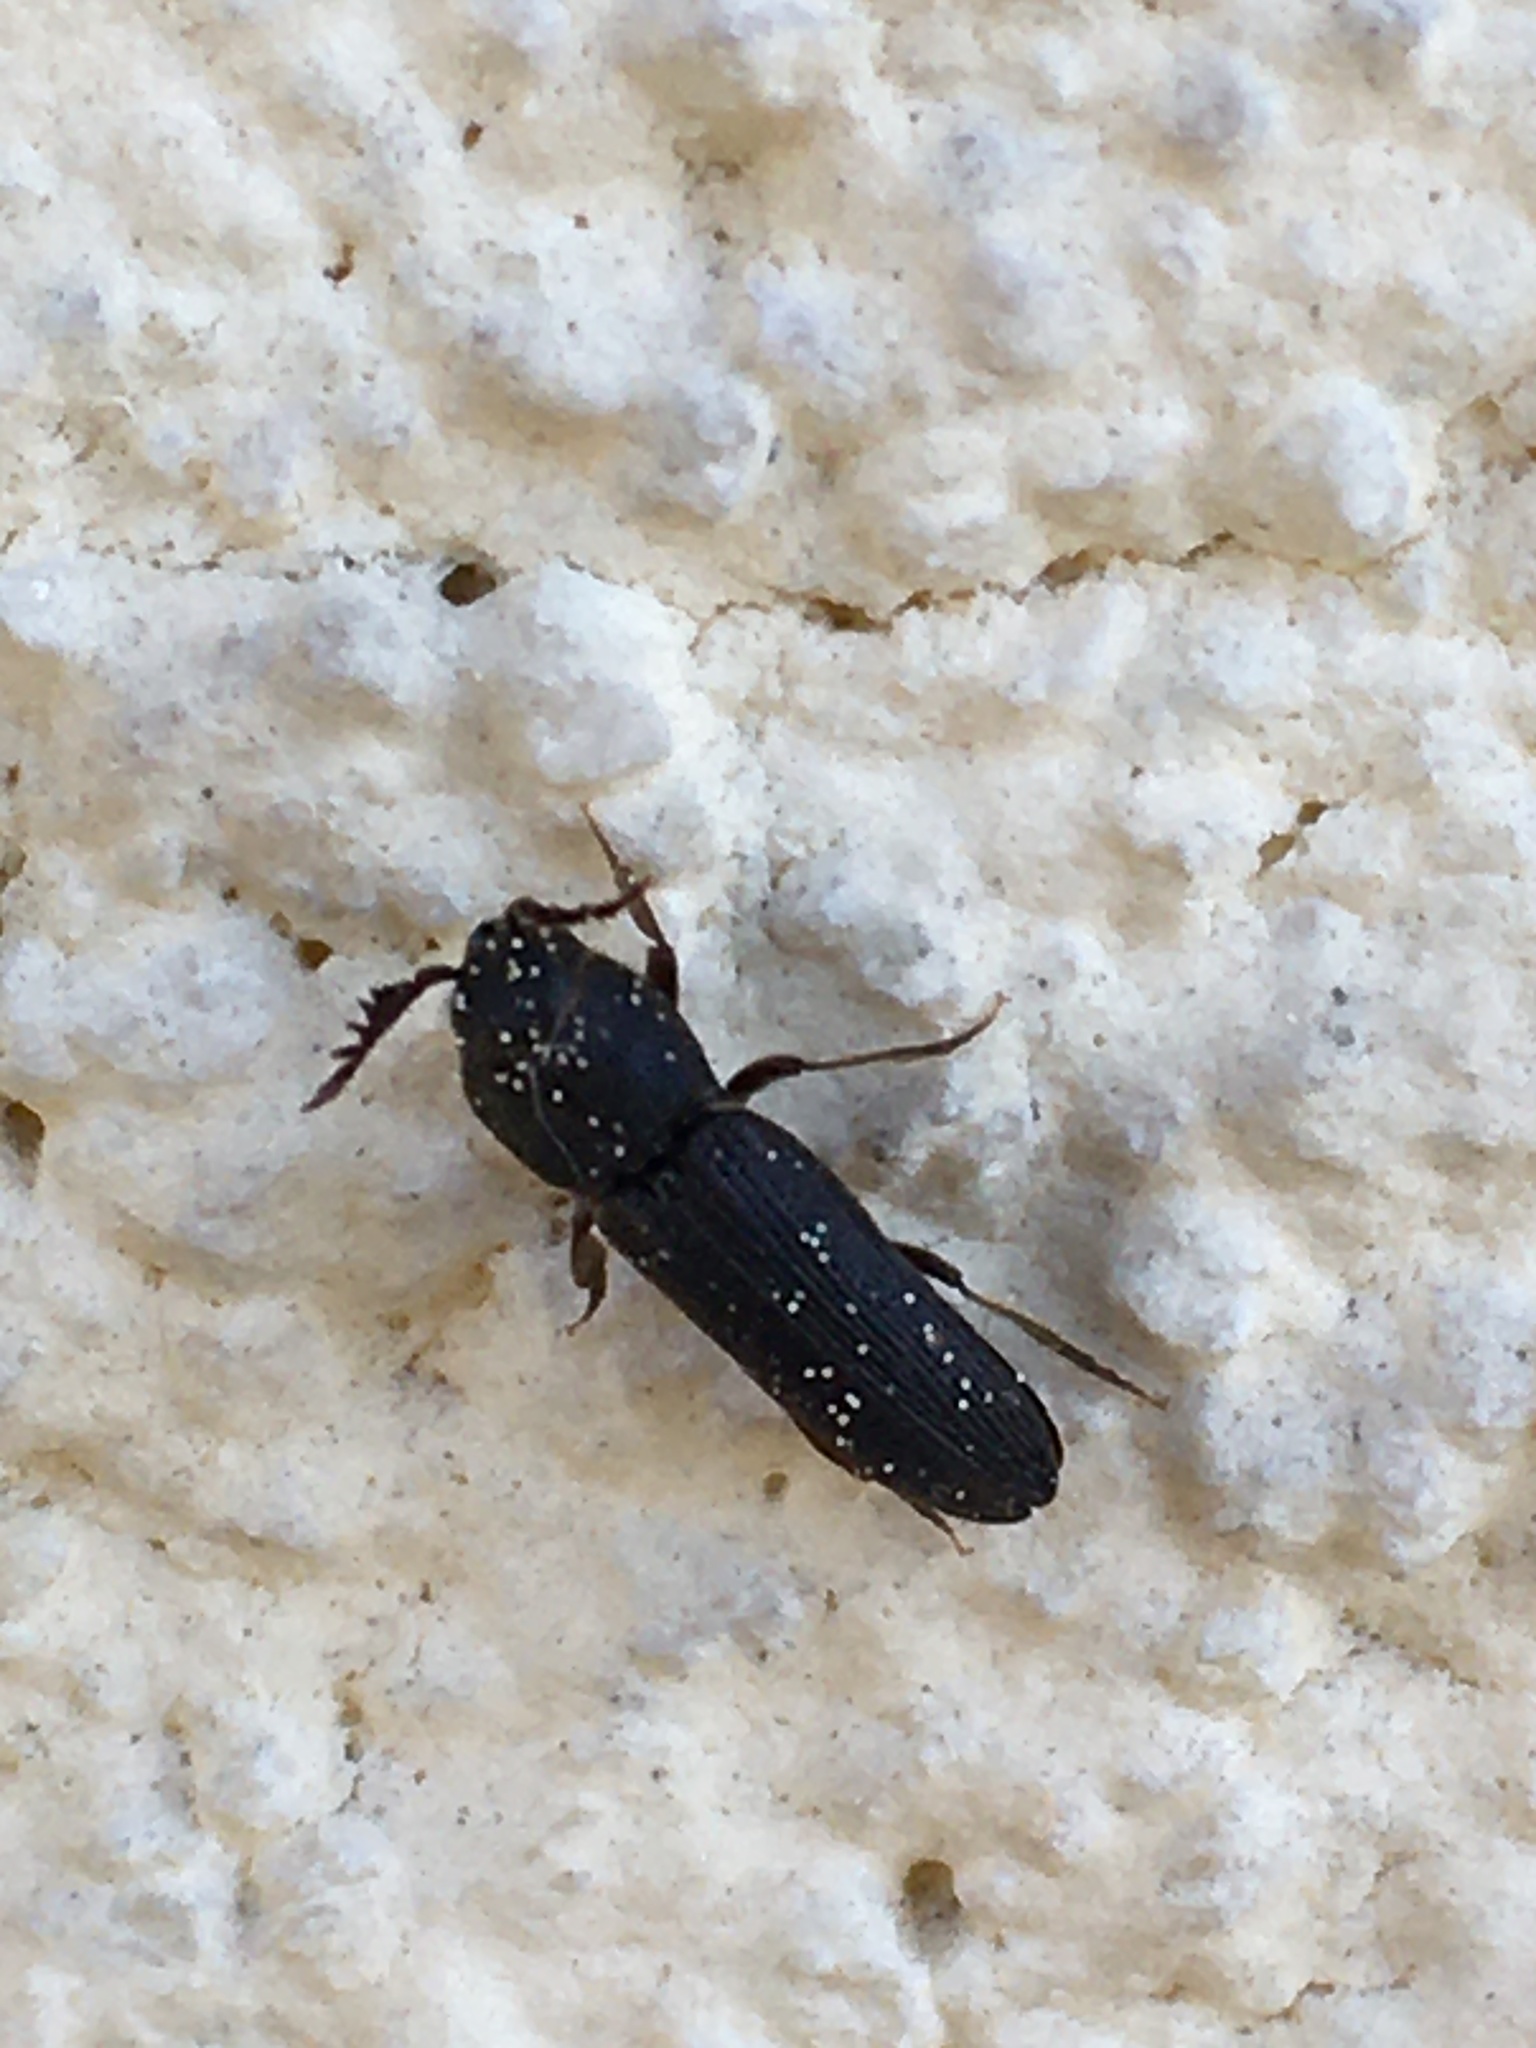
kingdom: Animalia
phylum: Arthropoda
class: Insecta
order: Coleoptera
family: Eucnemidae
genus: Melasis
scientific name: Melasis buprestoides
